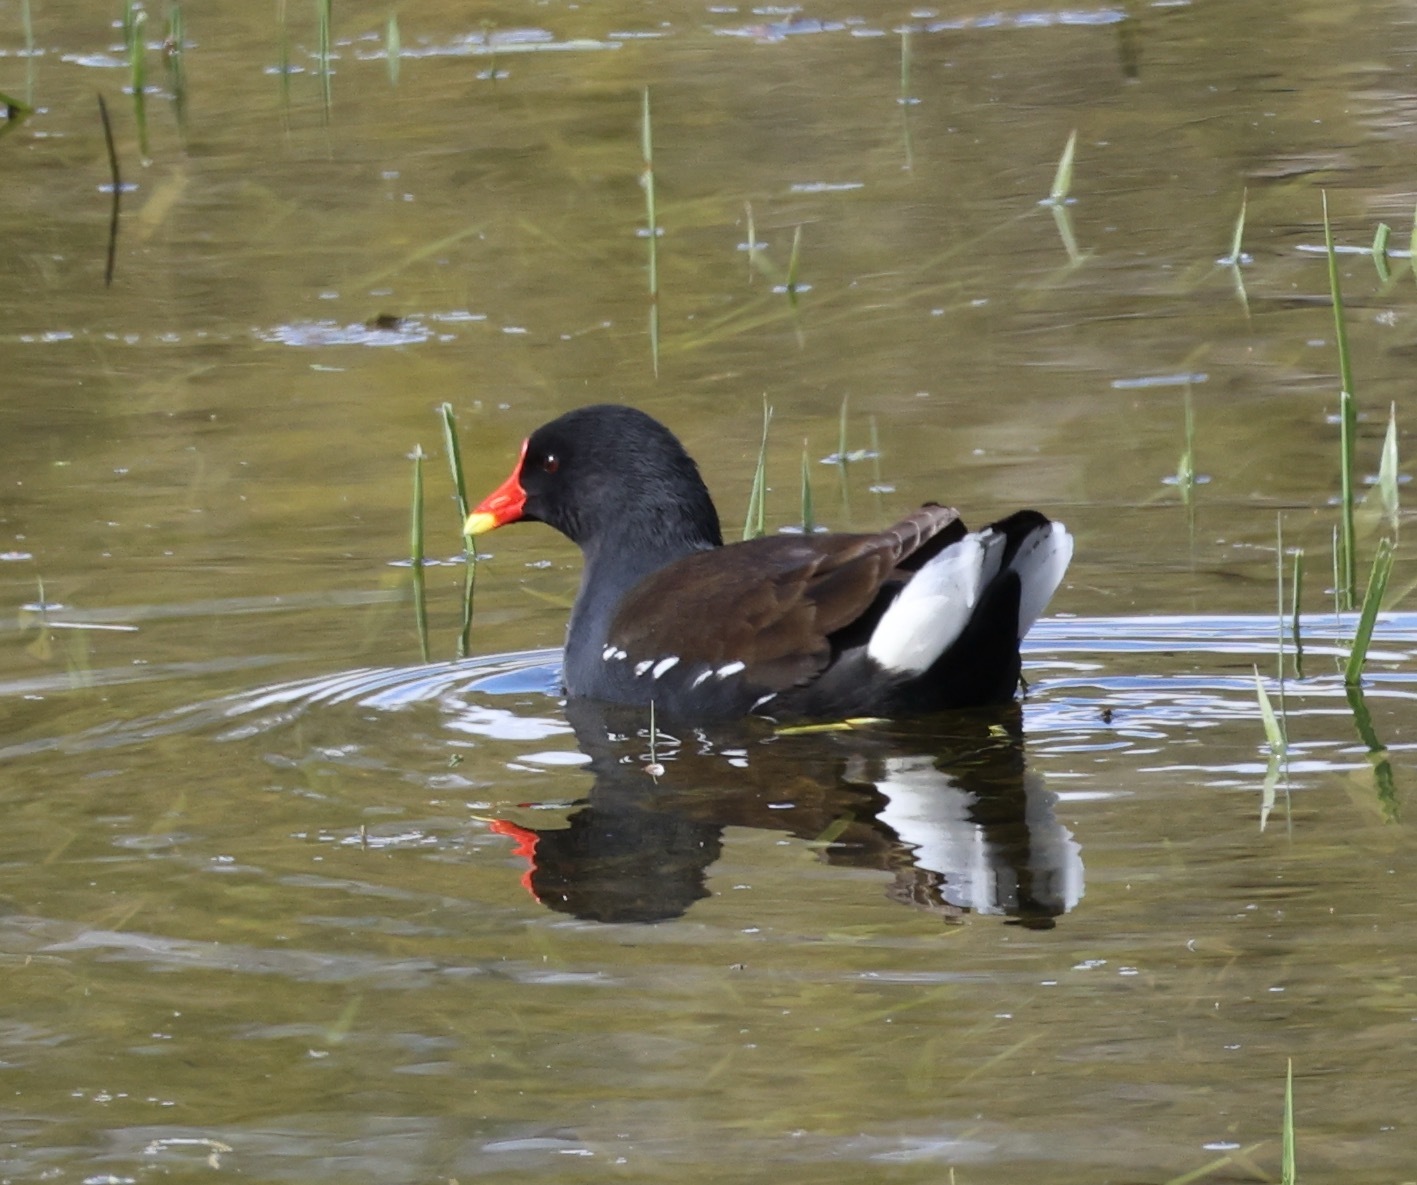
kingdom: Animalia
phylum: Chordata
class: Aves
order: Gruiformes
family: Rallidae
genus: Gallinula
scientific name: Gallinula chloropus
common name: Common moorhen
